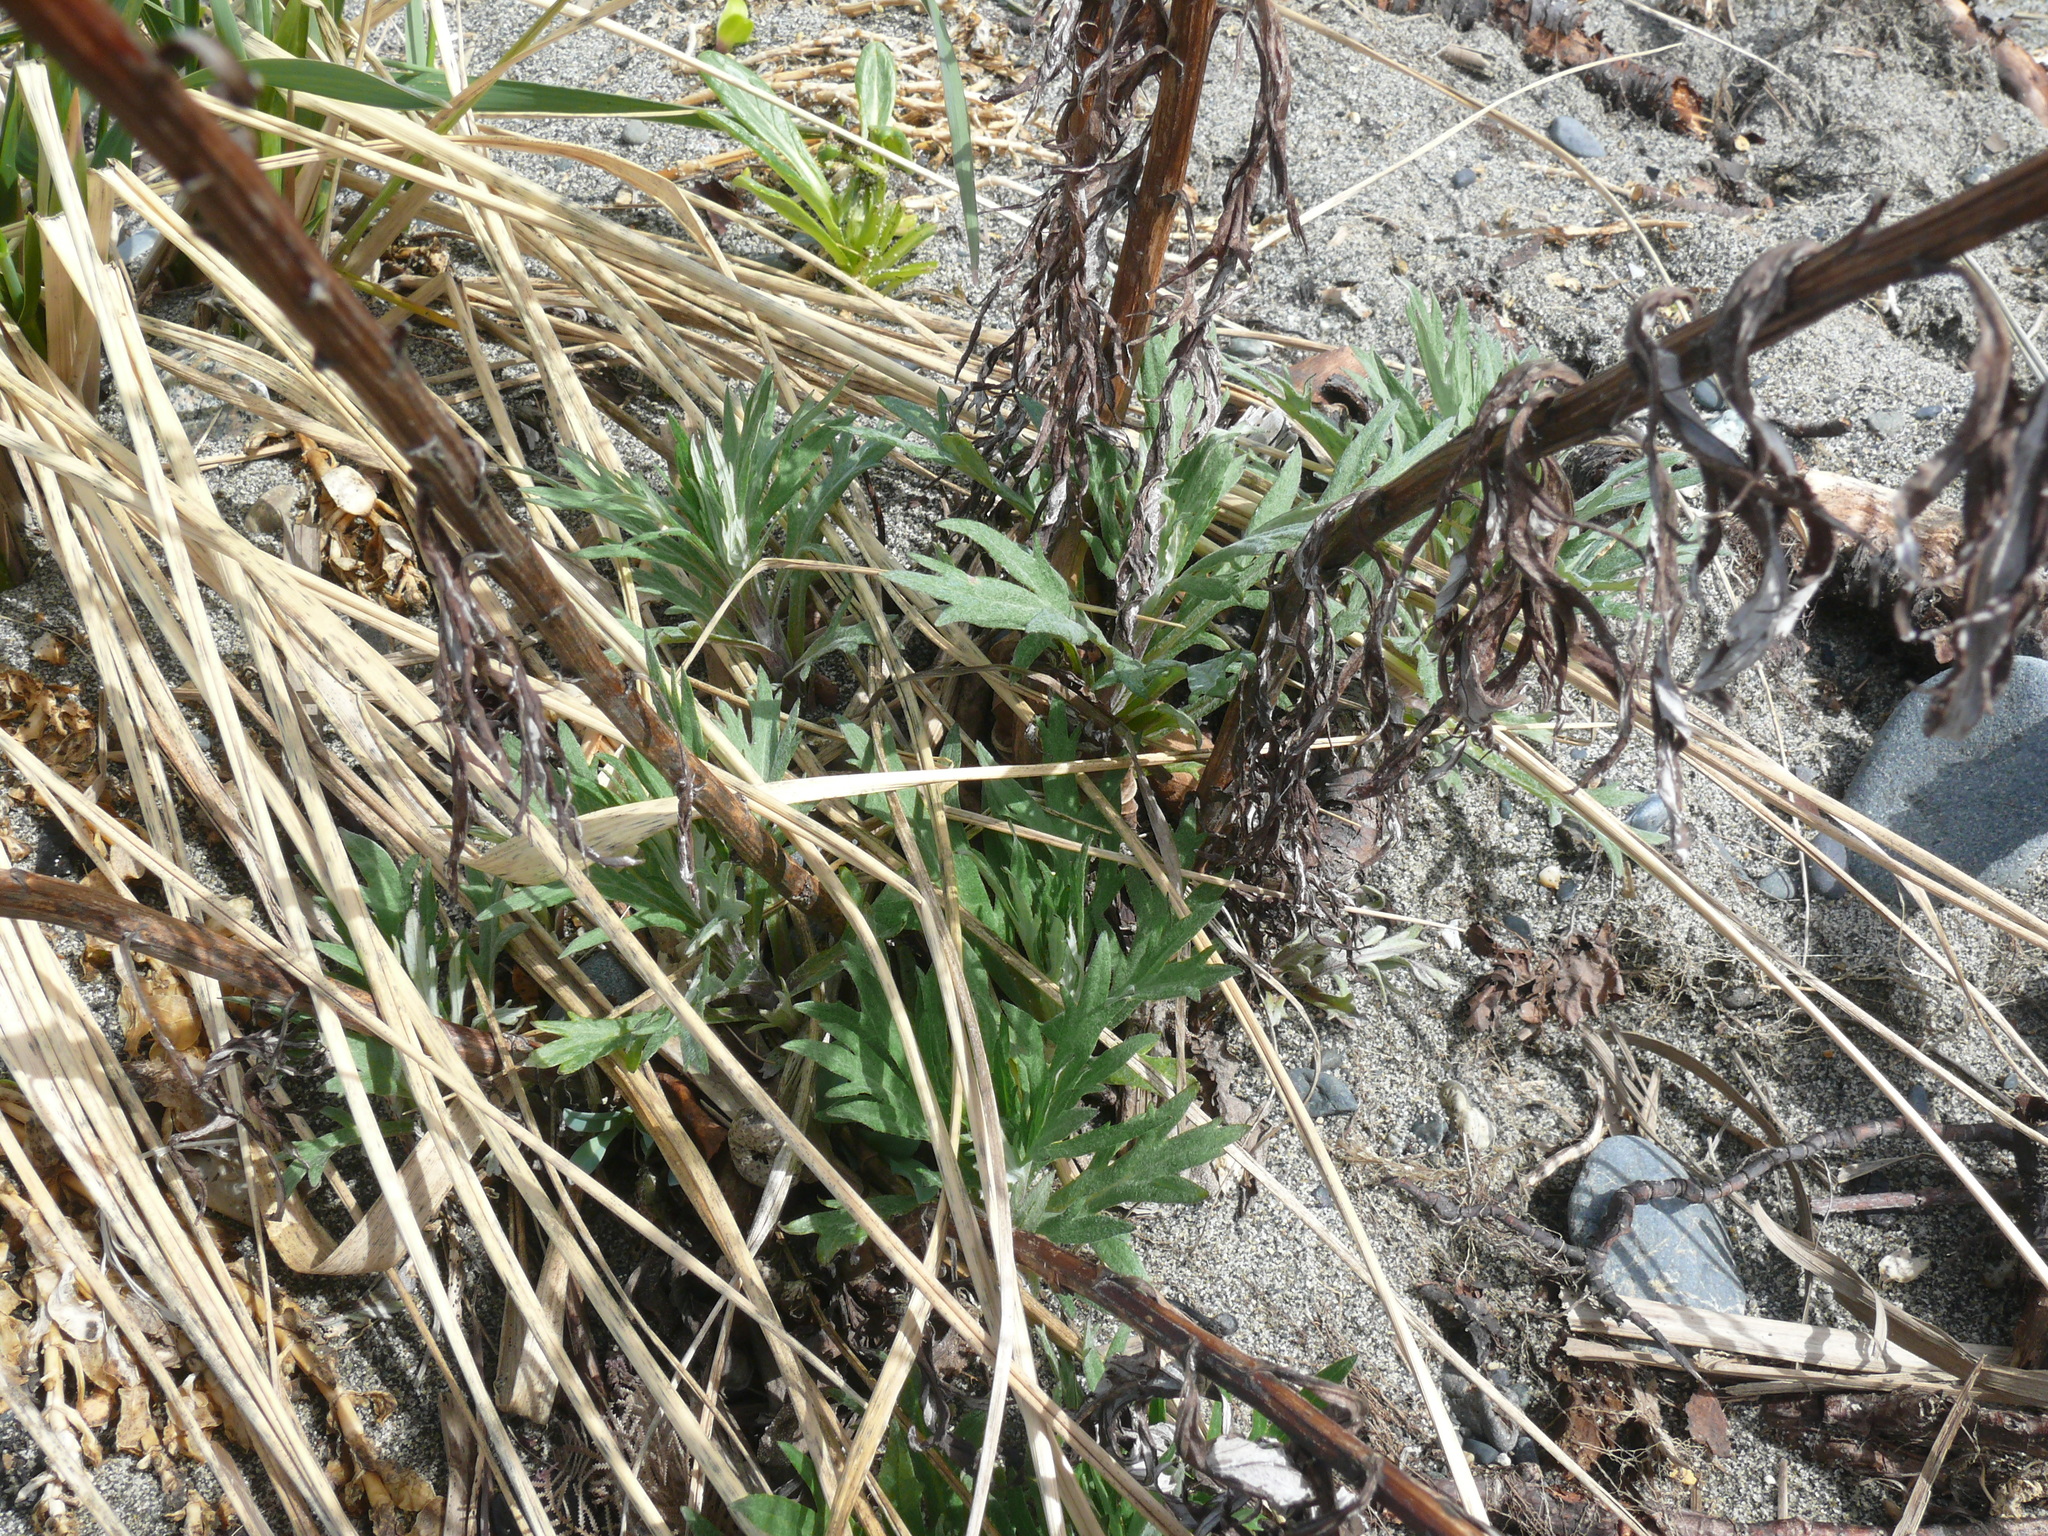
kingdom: Plantae
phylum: Tracheophyta
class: Magnoliopsida
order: Asterales
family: Asteraceae
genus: Artemisia
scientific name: Artemisia tilesii
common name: Aleutian mugwort
